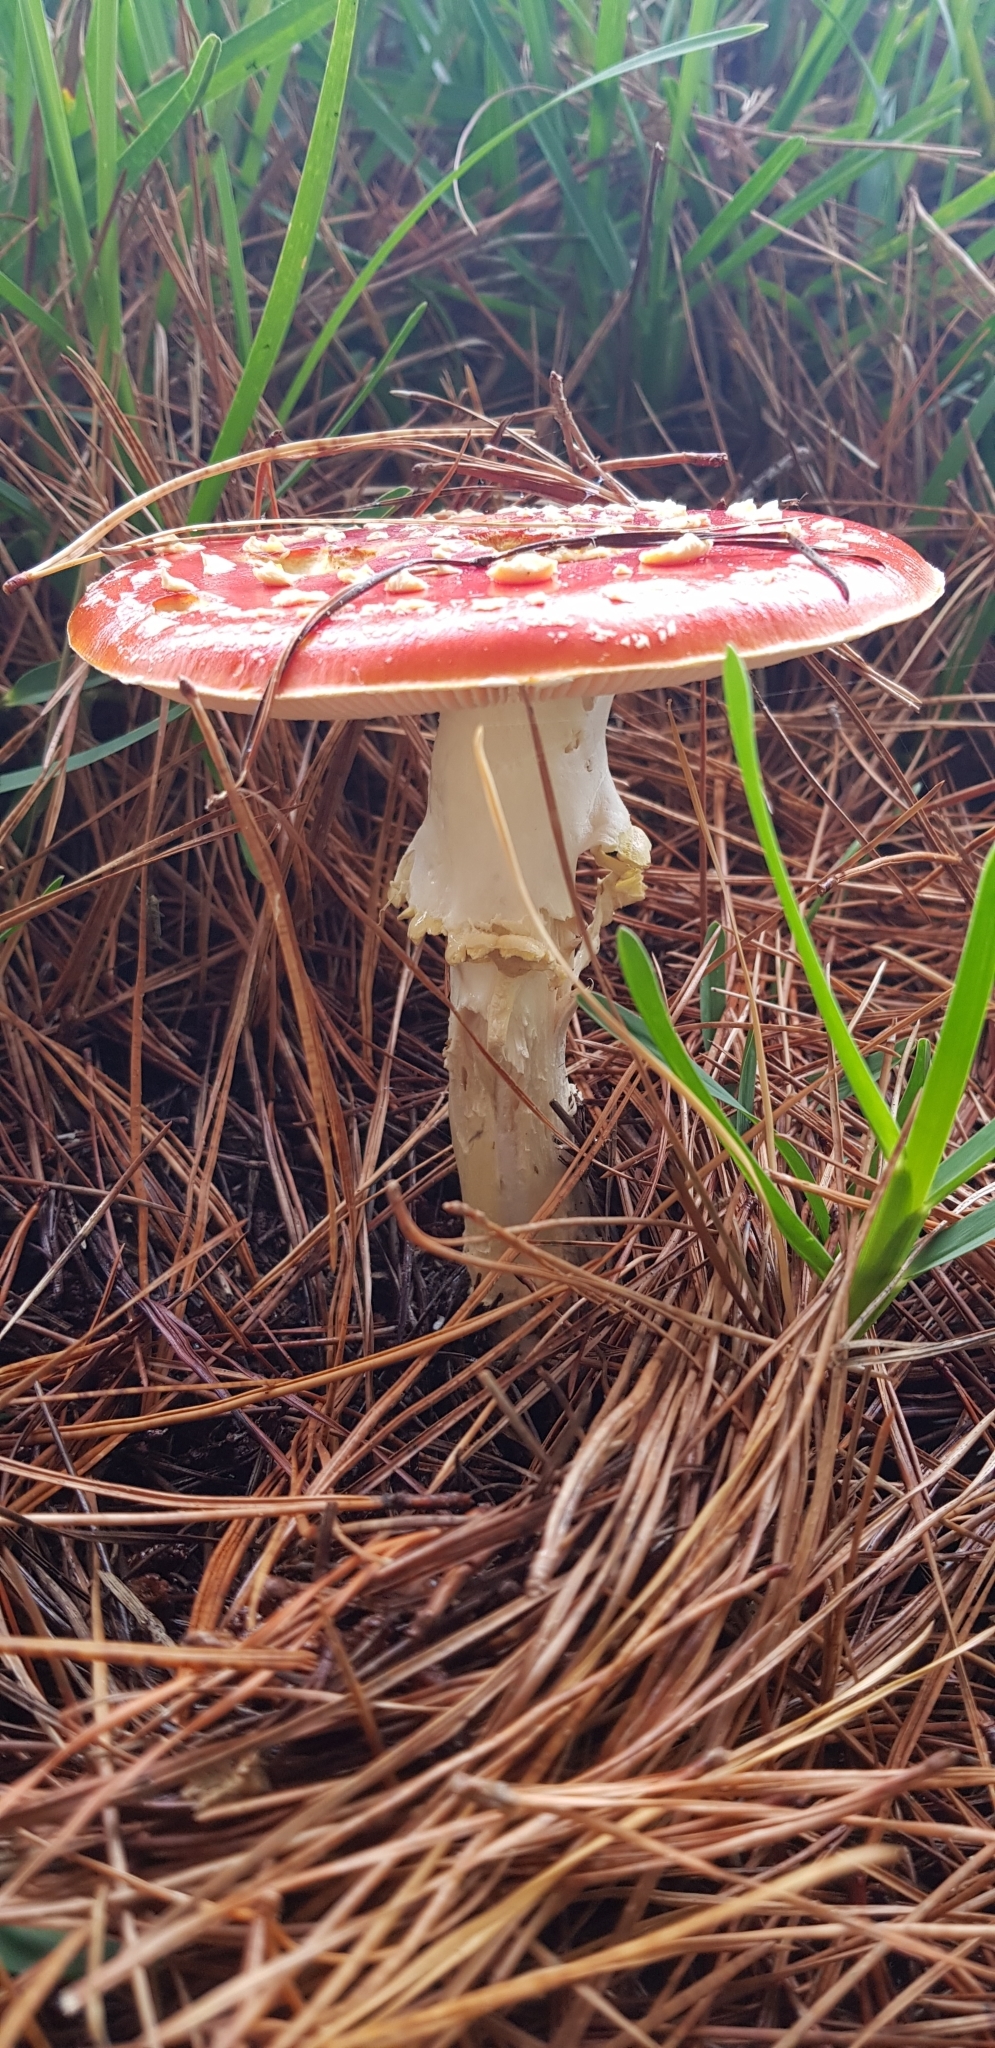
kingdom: Fungi
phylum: Basidiomycota
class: Agaricomycetes
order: Agaricales
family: Amanitaceae
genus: Amanita
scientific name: Amanita muscaria
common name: Fly agaric
